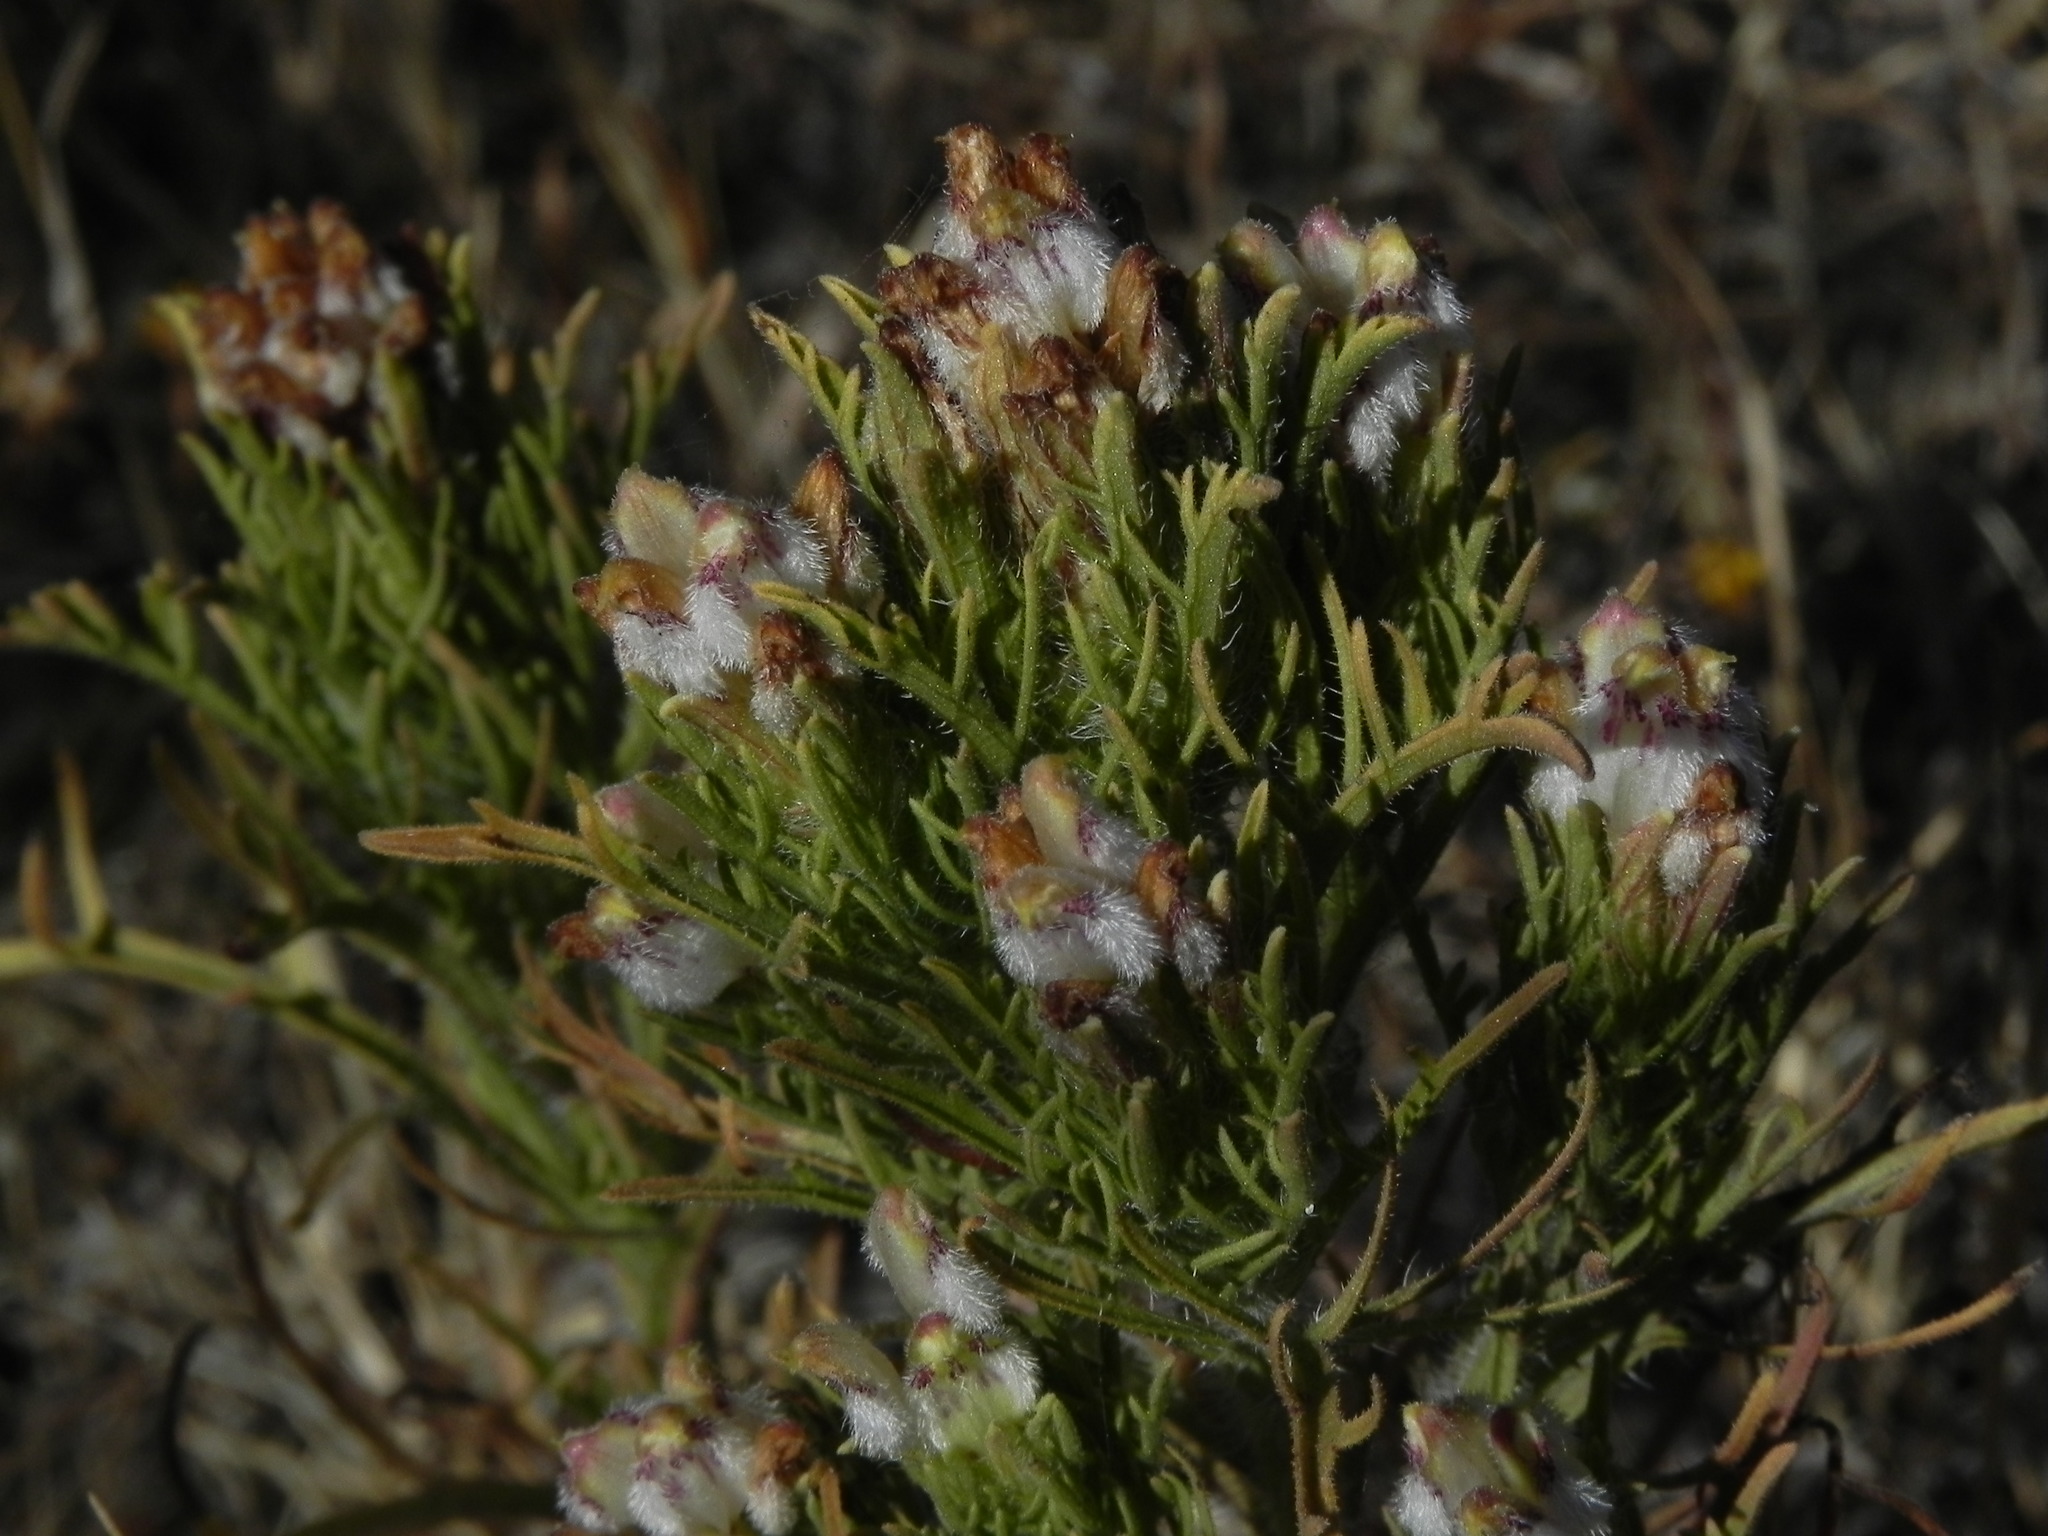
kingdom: Plantae
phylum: Tracheophyta
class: Magnoliopsida
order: Lamiales
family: Orobanchaceae
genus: Dicranostegia
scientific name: Dicranostegia orcuttiana
